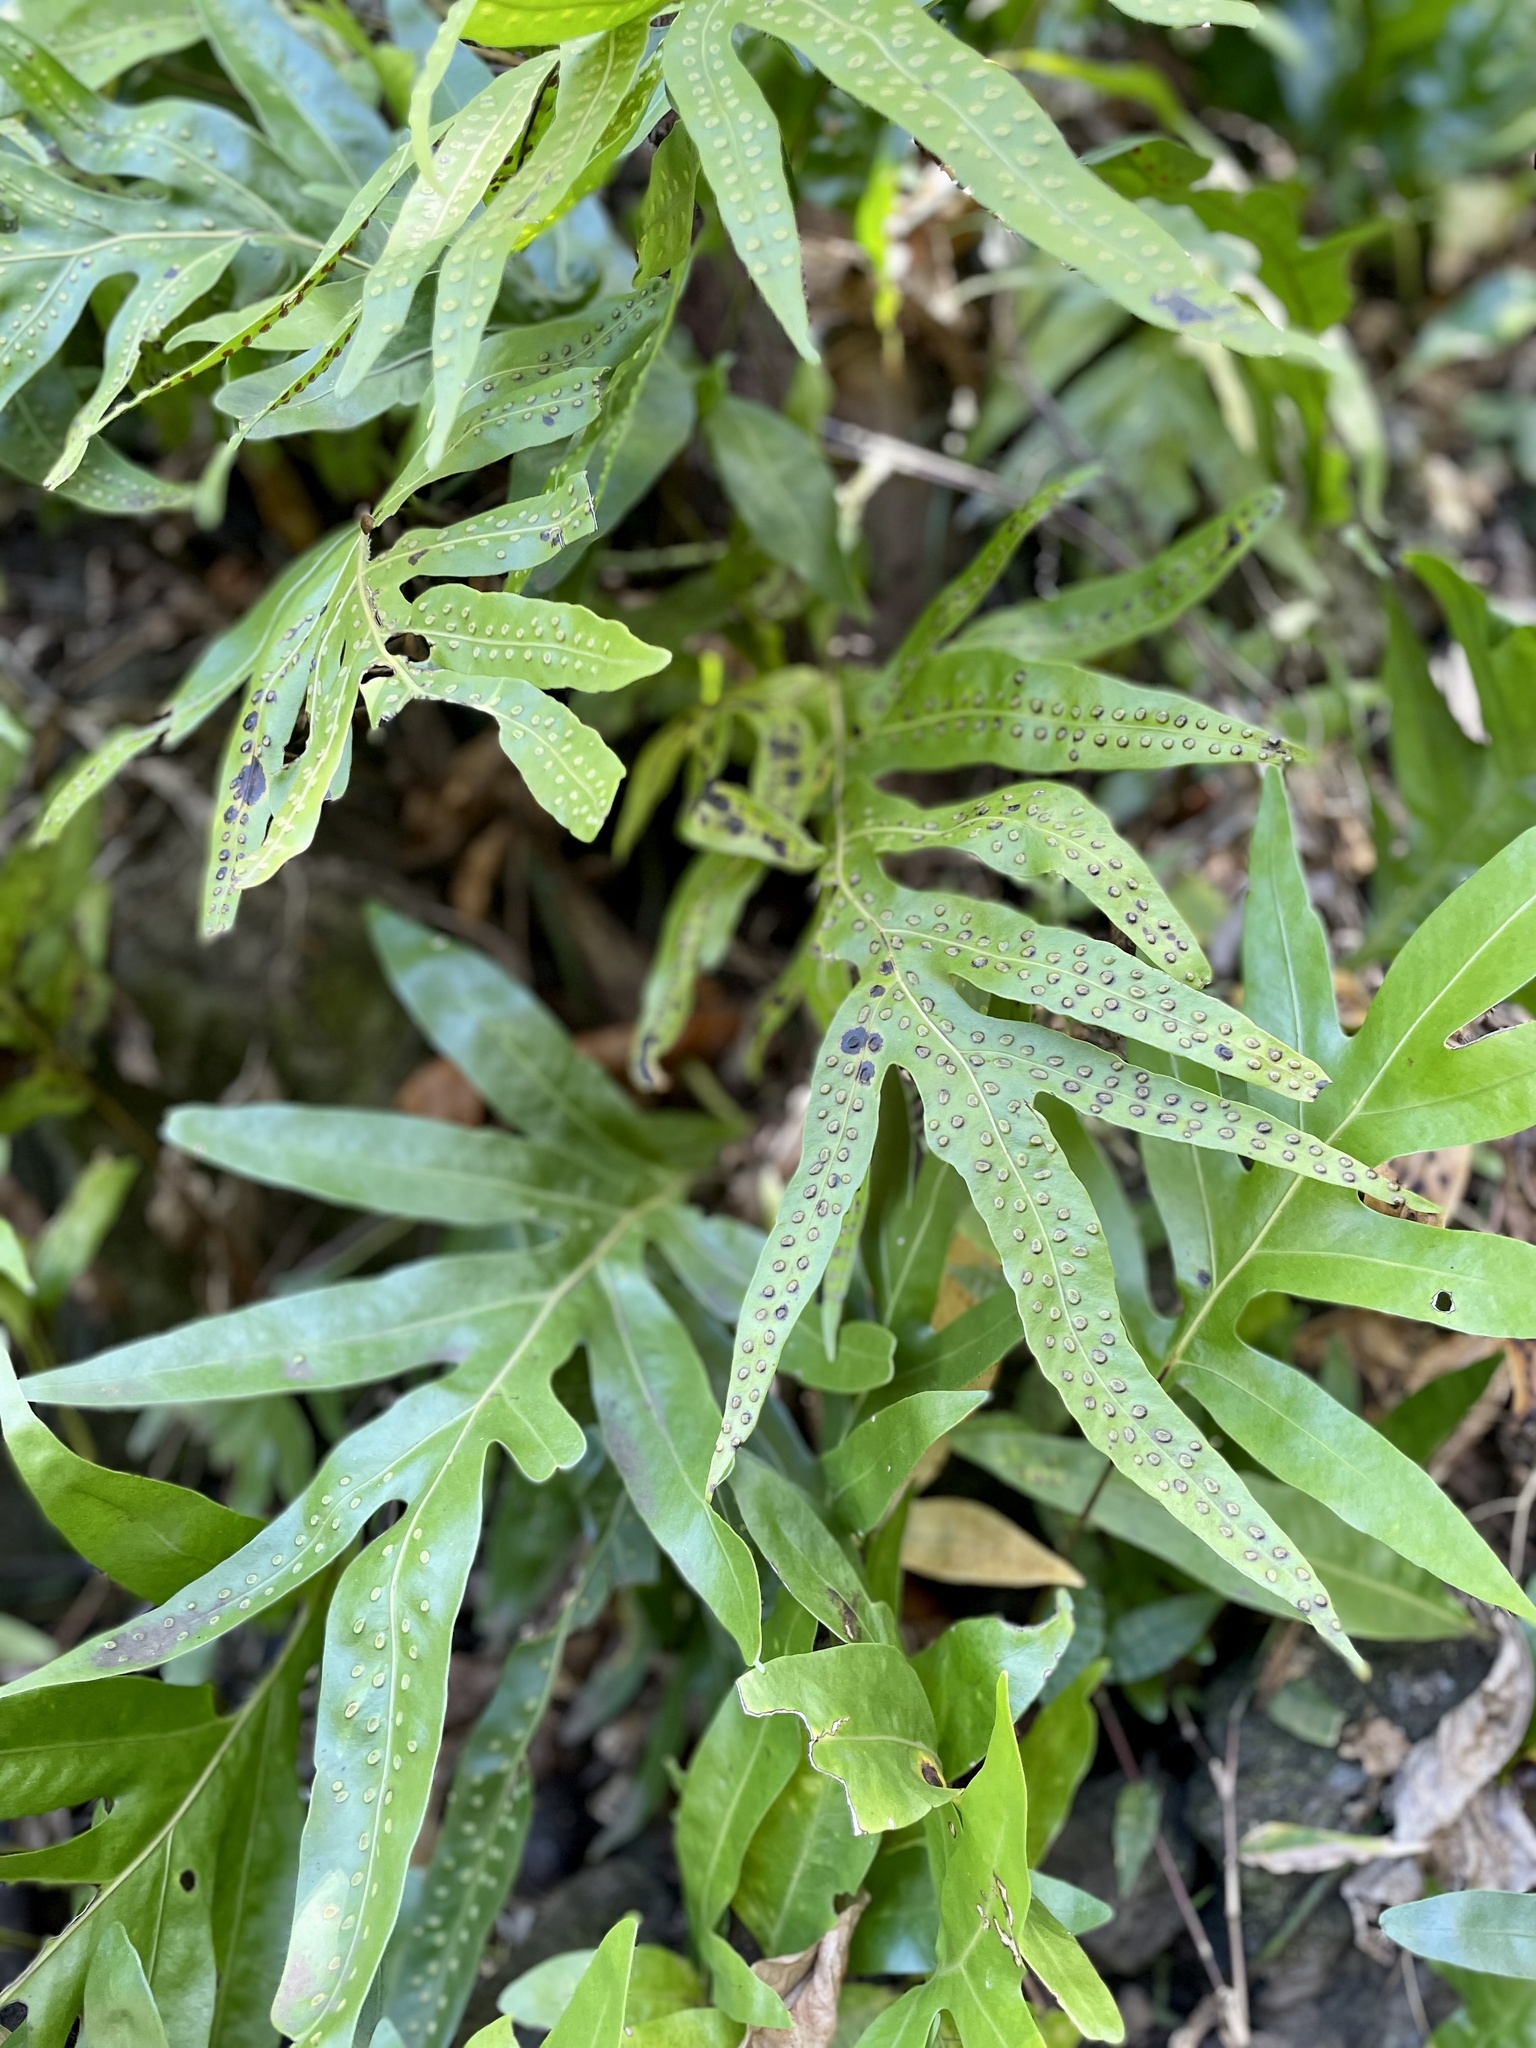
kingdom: Plantae
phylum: Tracheophyta
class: Polypodiopsida
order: Polypodiales
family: Polypodiaceae
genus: Microsorum
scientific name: Microsorum grossum
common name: Musk fern
